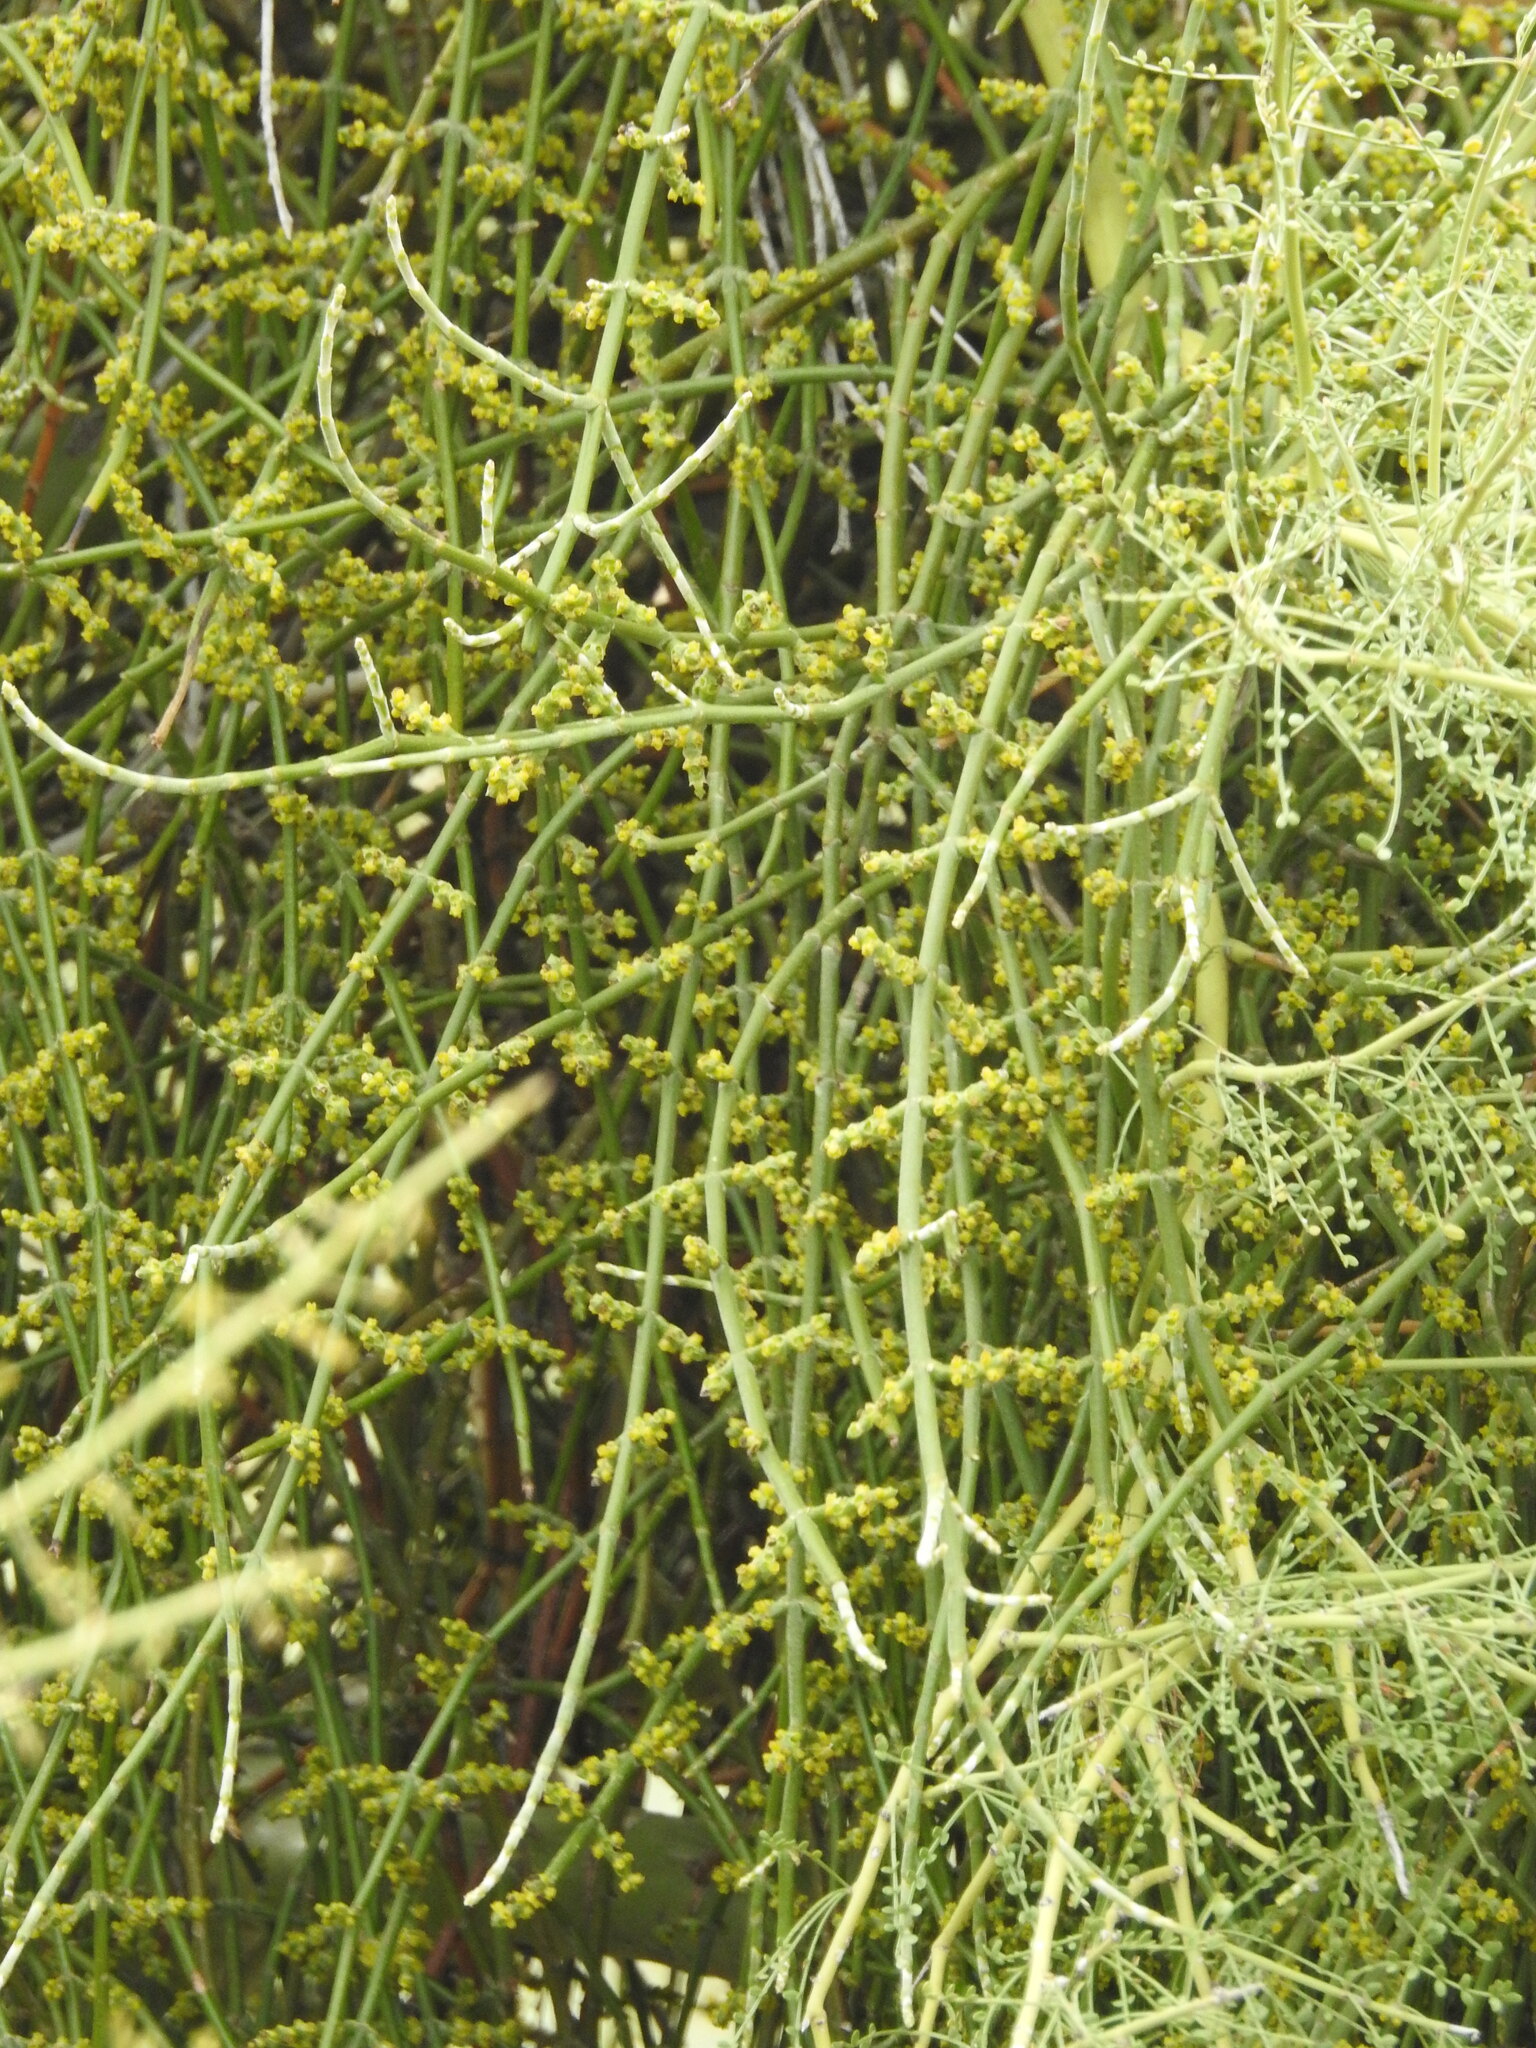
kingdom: Plantae
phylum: Tracheophyta
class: Magnoliopsida
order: Santalales
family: Viscaceae
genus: Phoradendron
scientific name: Phoradendron californicum
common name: Acacia mistletoe
